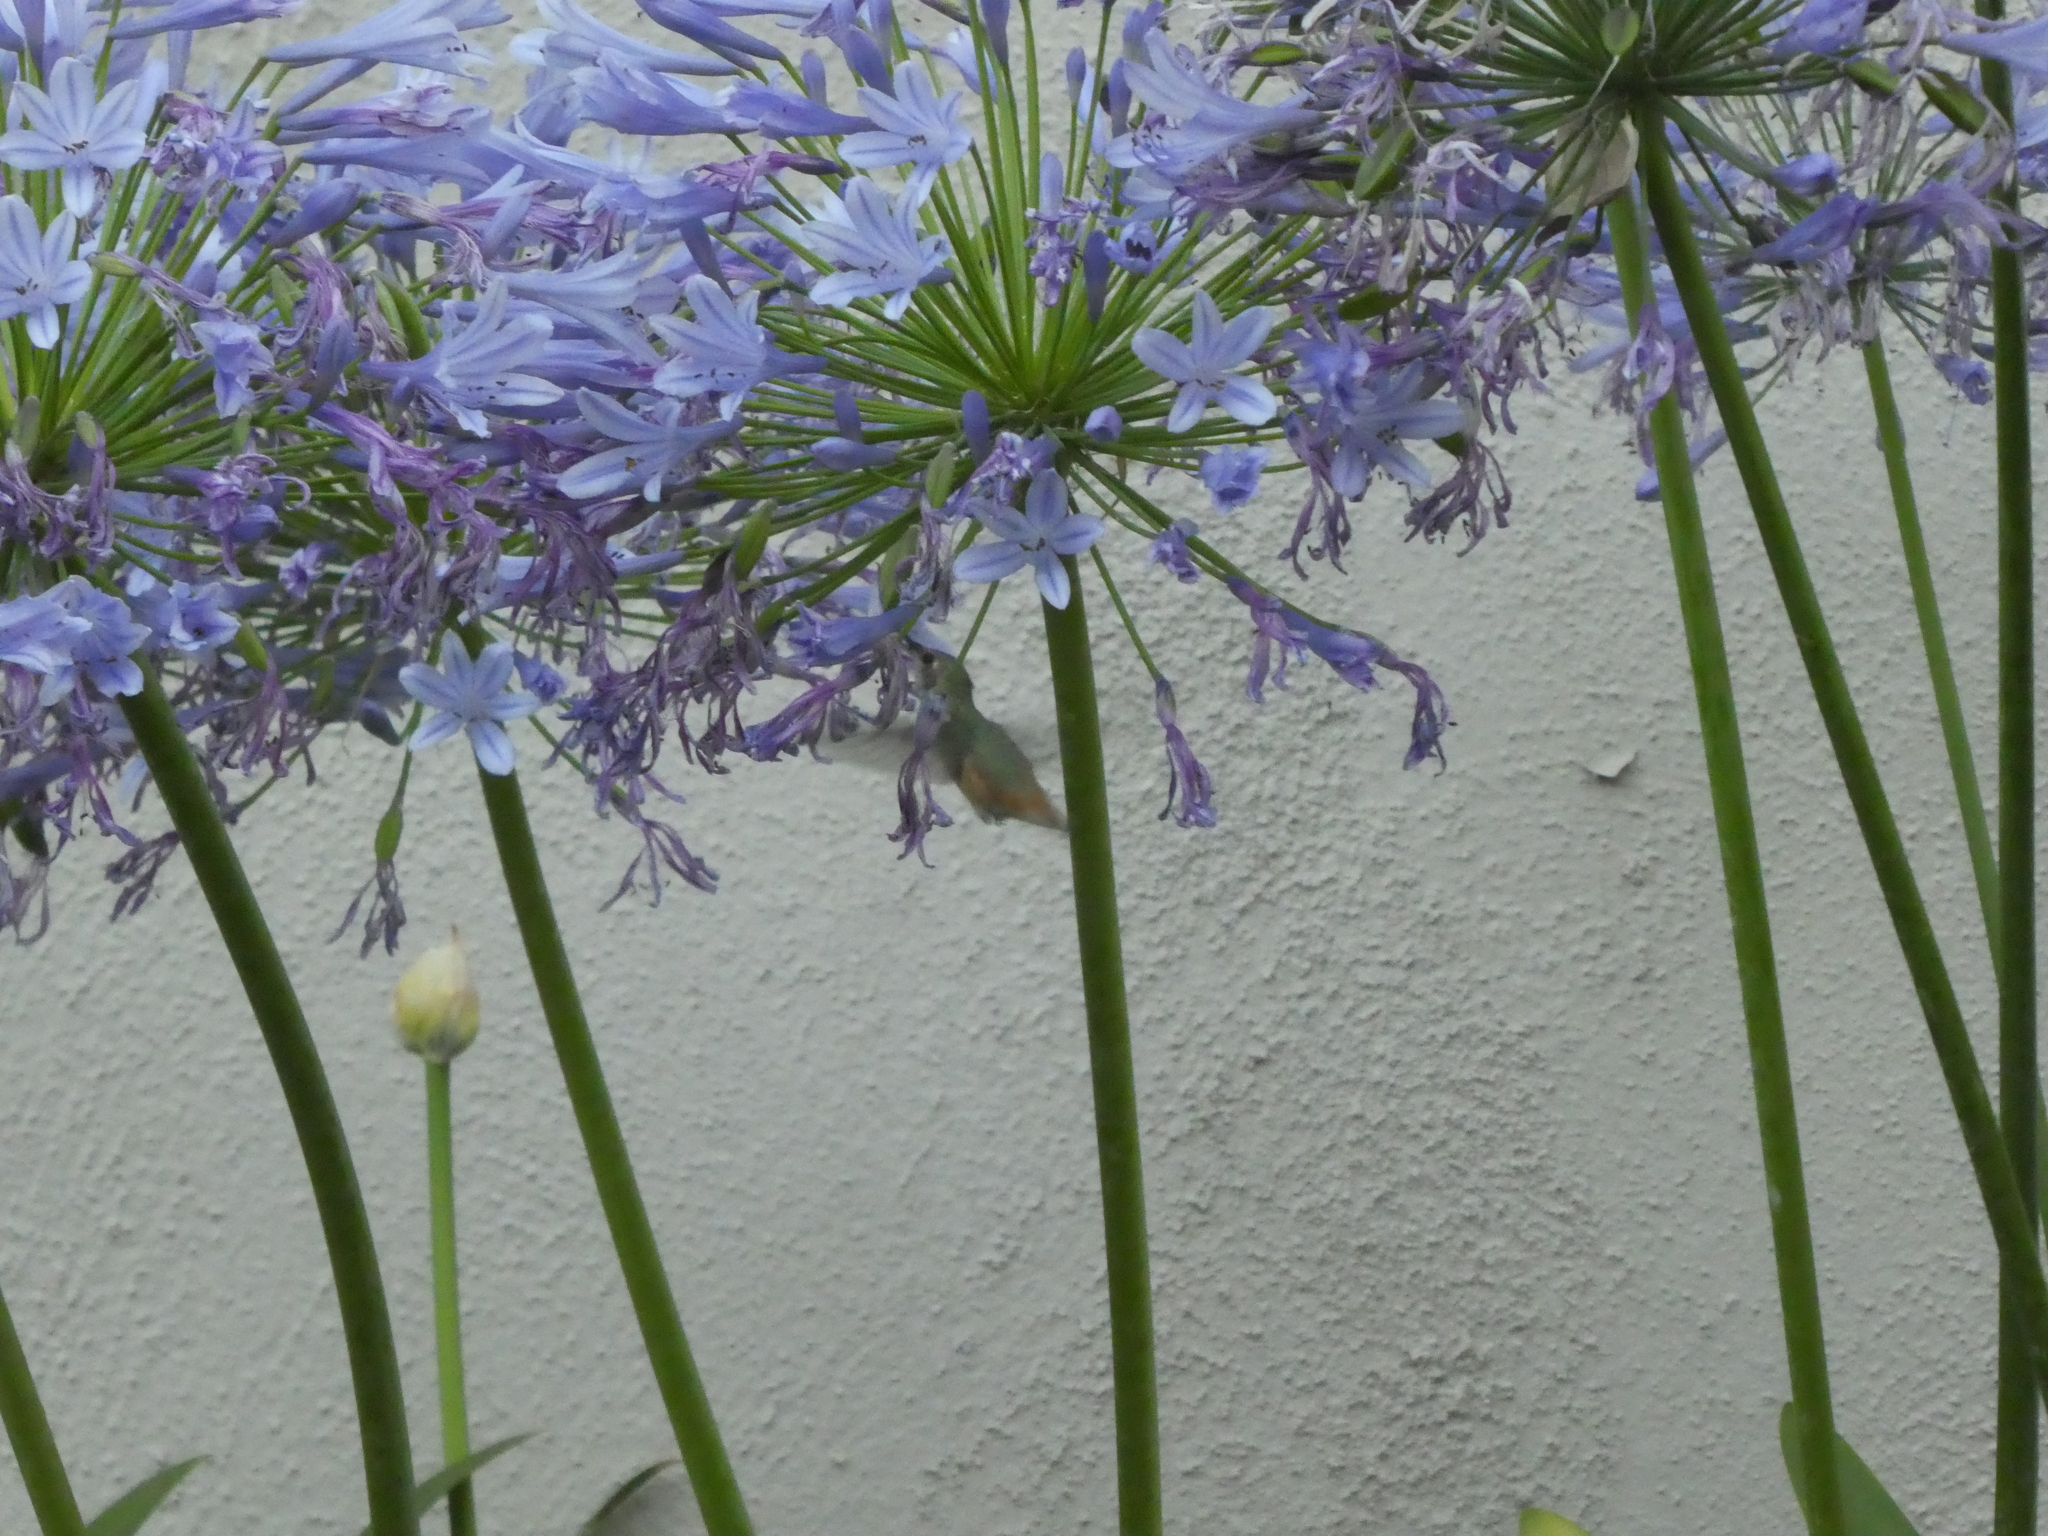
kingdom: Animalia
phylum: Chordata
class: Aves
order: Apodiformes
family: Trochilidae
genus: Selasphorus
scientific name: Selasphorus
